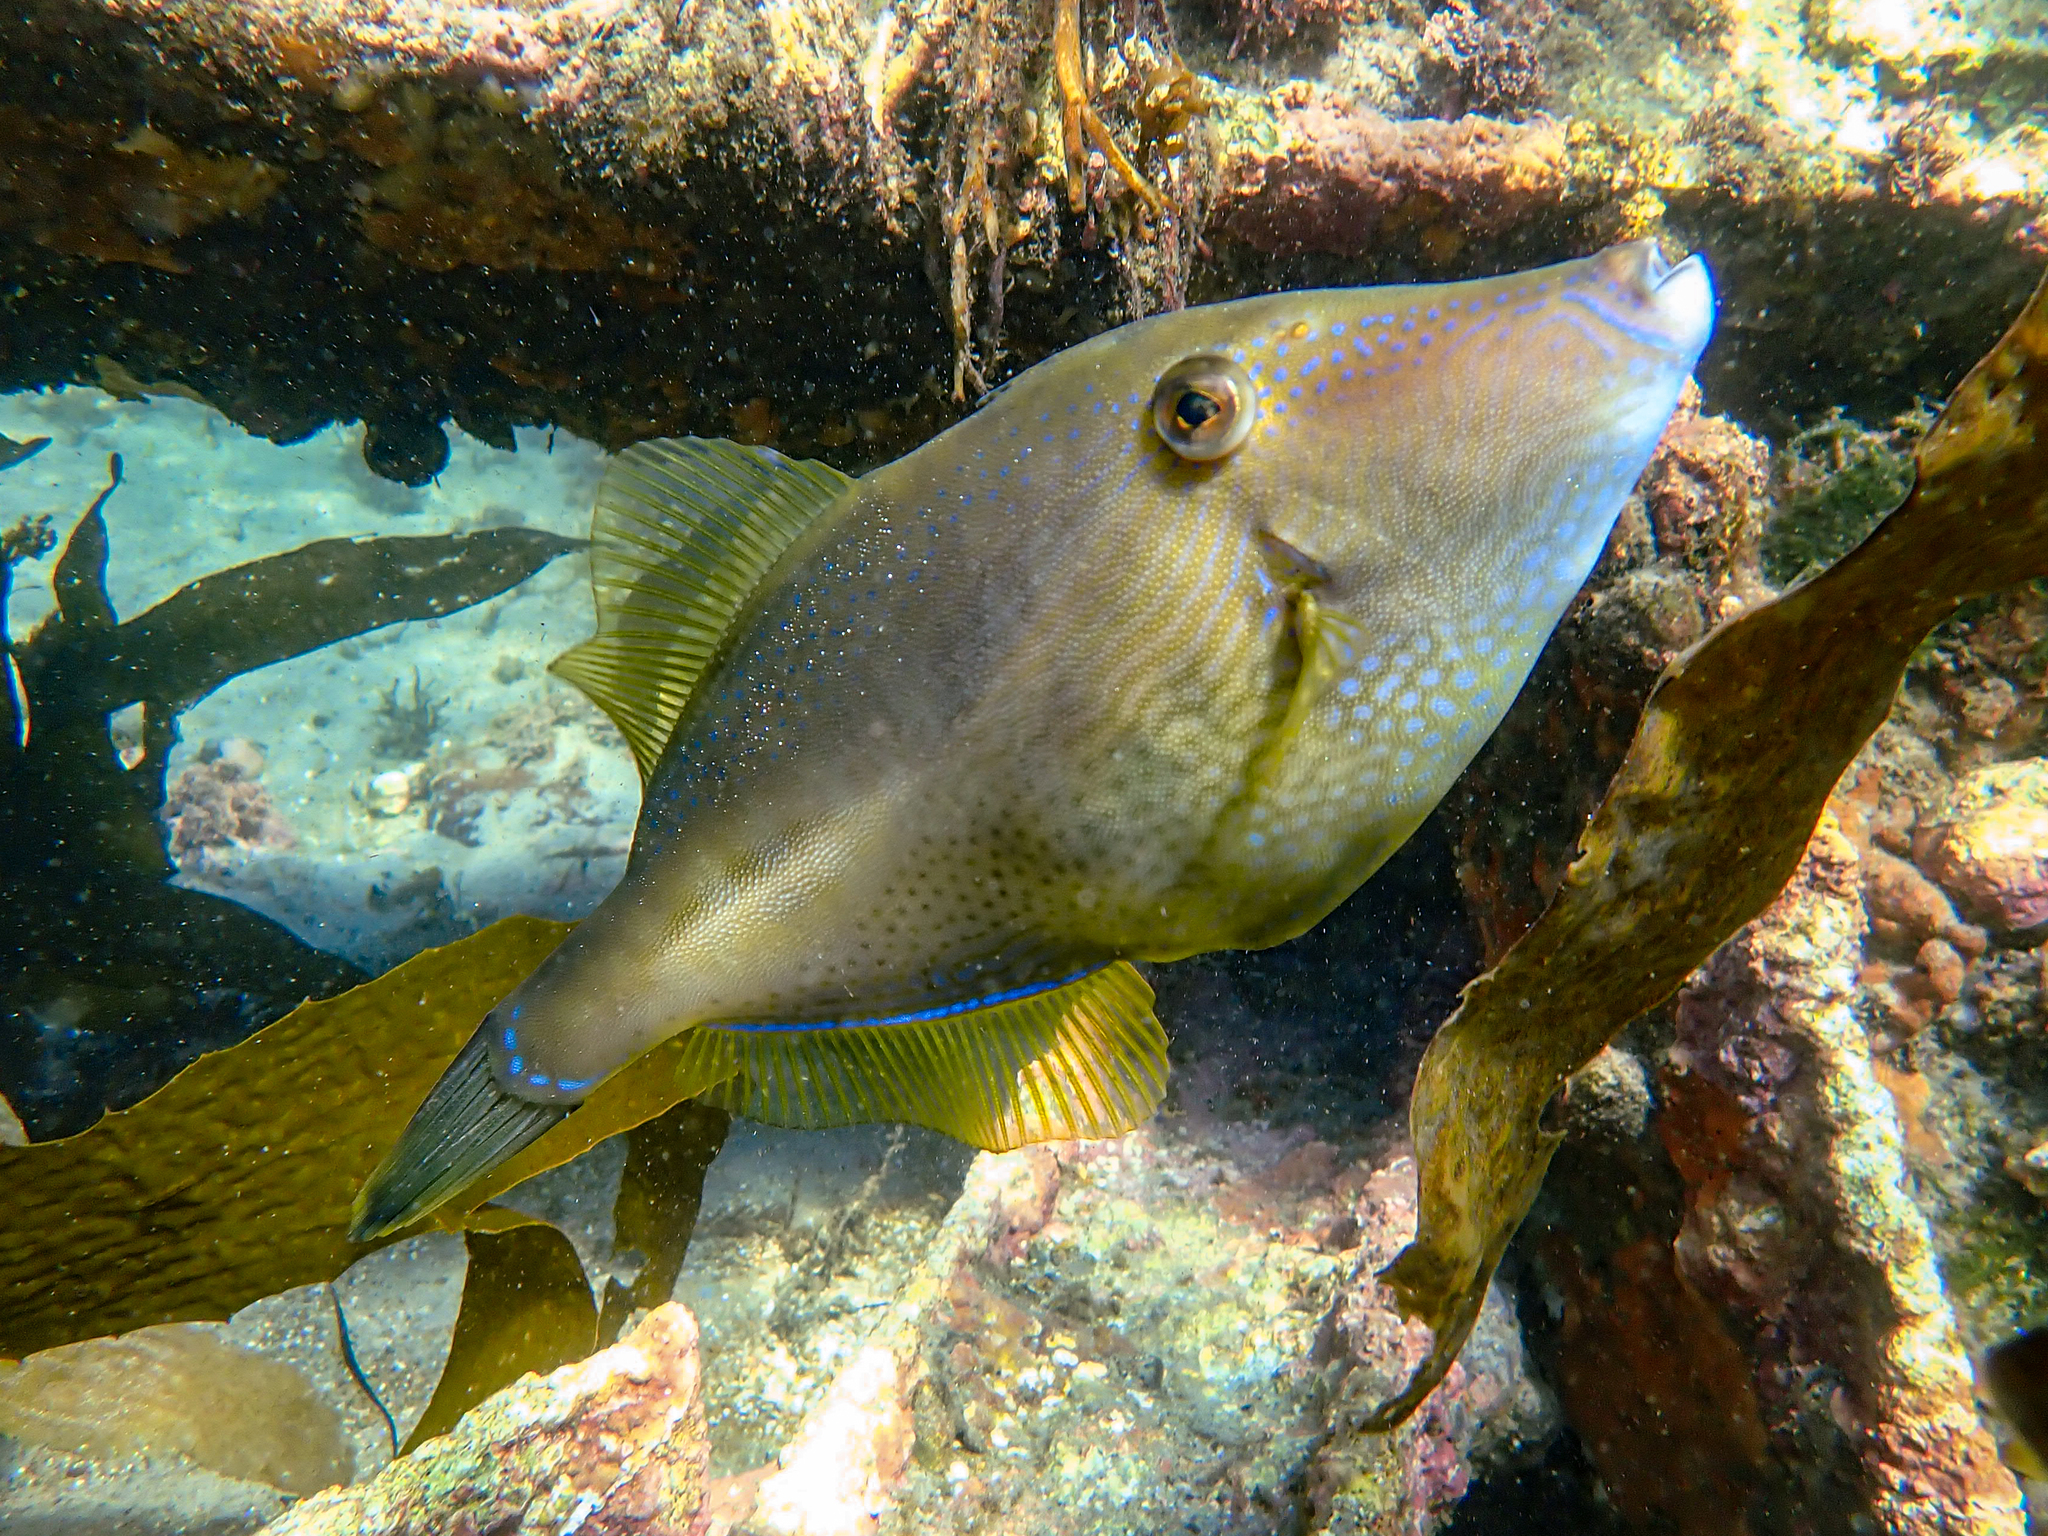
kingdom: Animalia
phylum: Chordata
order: Tetraodontiformes
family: Monacanthidae
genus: Acanthaluteres
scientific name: Acanthaluteres vittiger
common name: Brown leatherjacket
